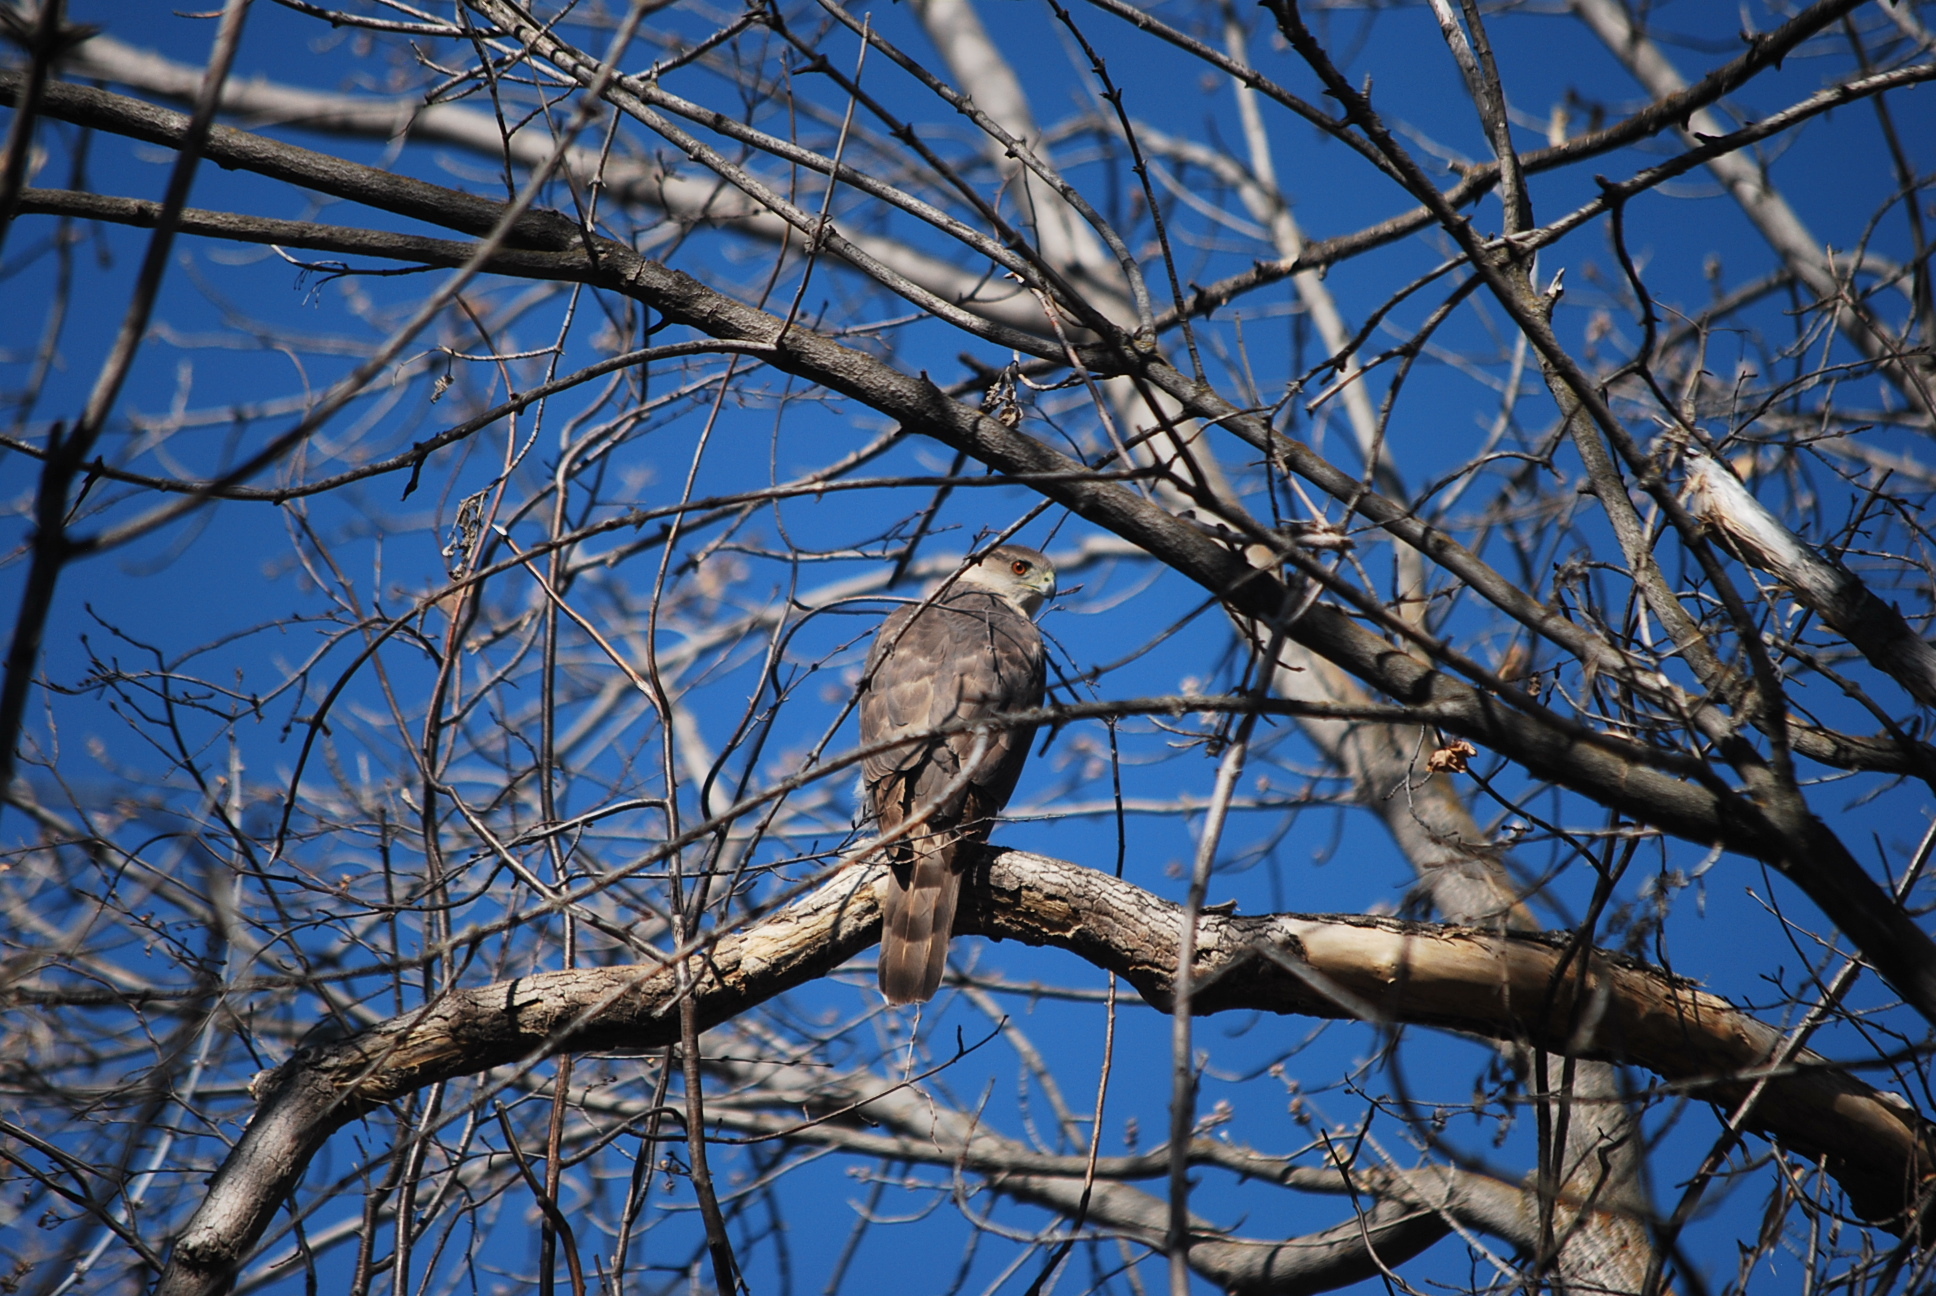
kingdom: Animalia
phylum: Chordata
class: Aves
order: Accipitriformes
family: Accipitridae
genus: Accipiter
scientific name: Accipiter cooperii
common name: Cooper's hawk
